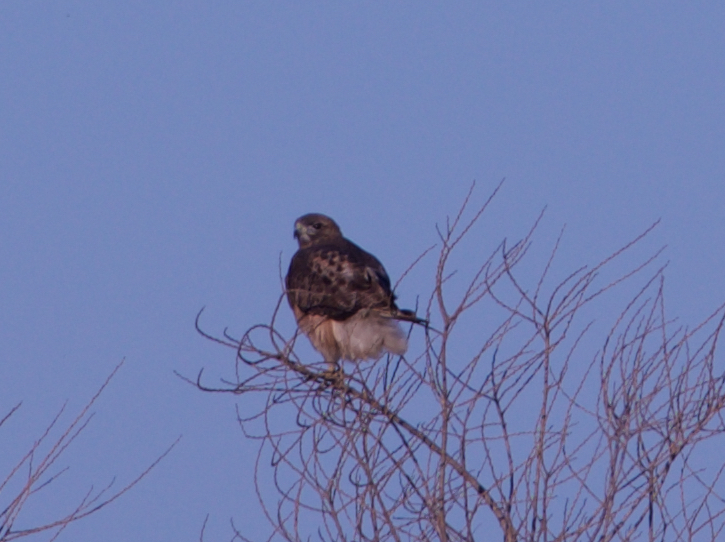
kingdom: Animalia
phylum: Chordata
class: Aves
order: Accipitriformes
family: Accipitridae
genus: Buteo
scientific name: Buteo jamaicensis
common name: Red-tailed hawk
